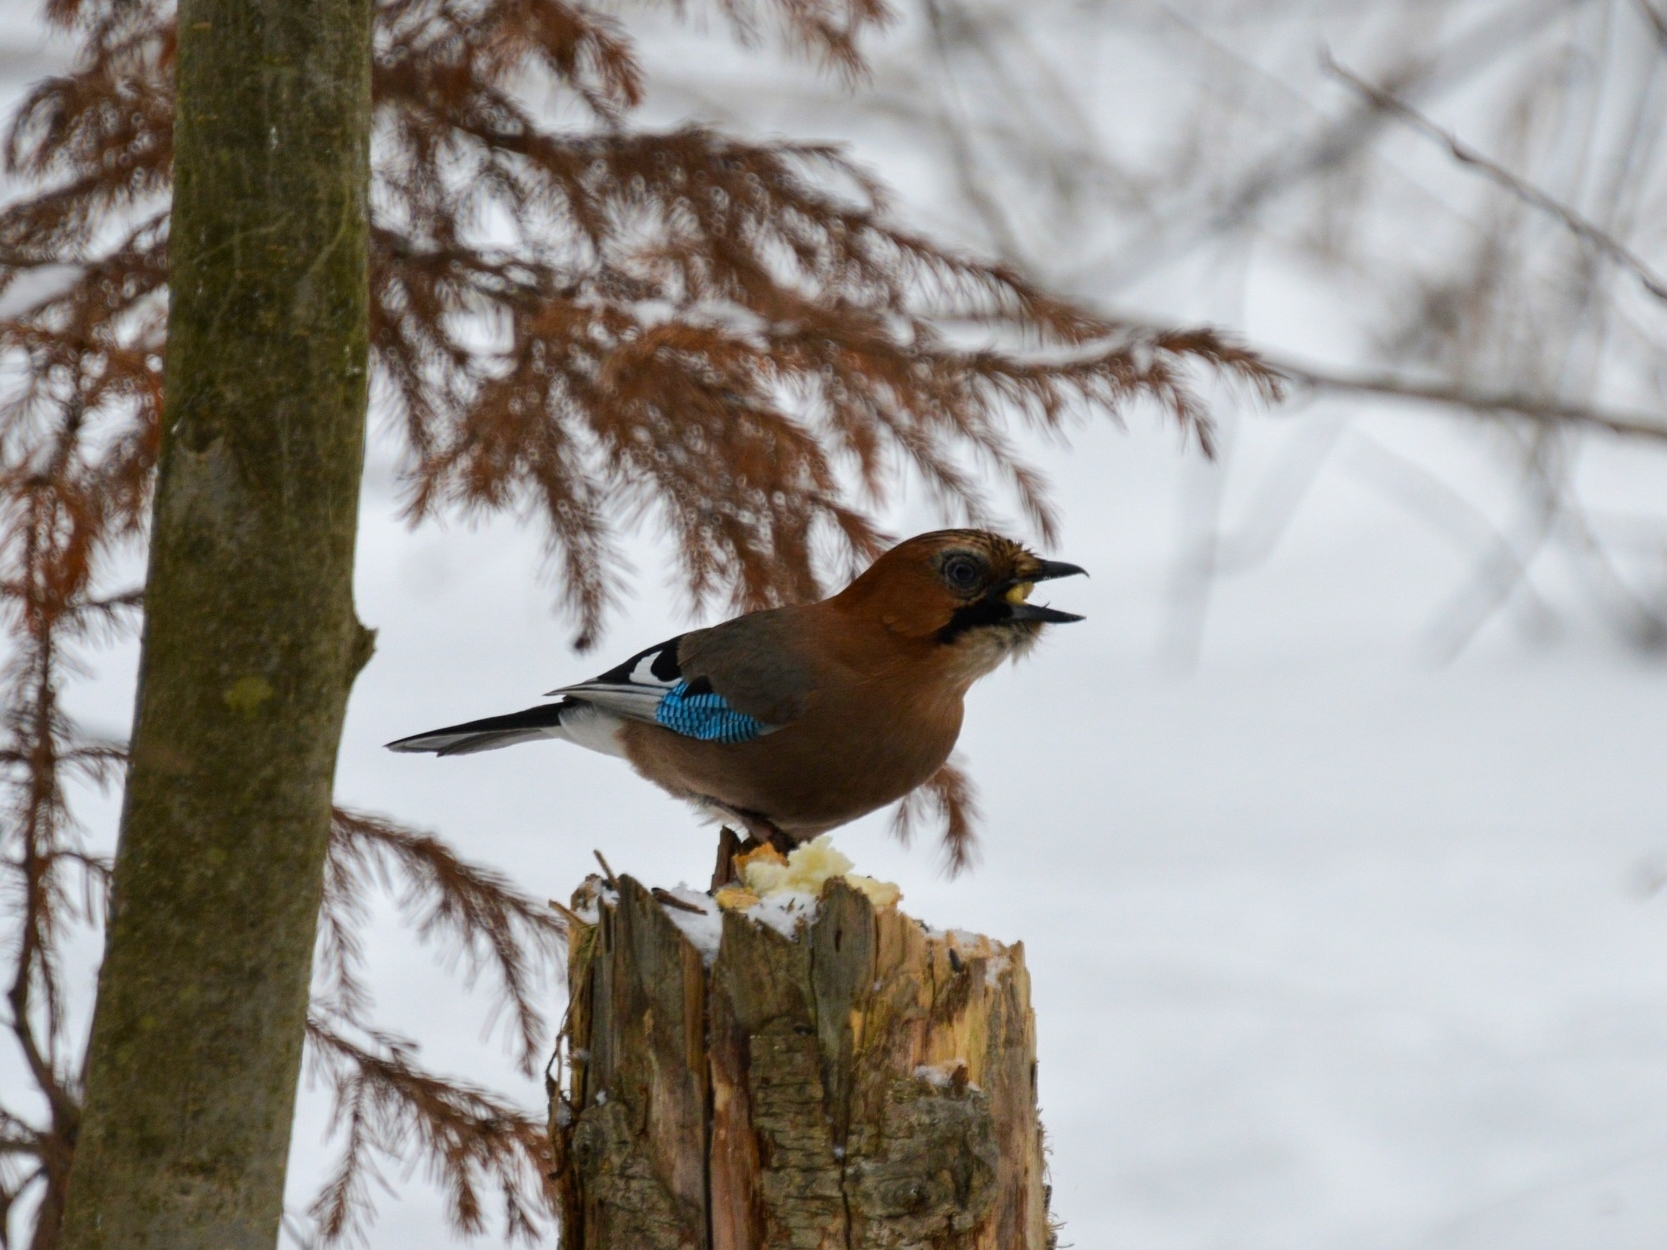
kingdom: Animalia
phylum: Chordata
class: Aves
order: Passeriformes
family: Corvidae
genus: Garrulus
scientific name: Garrulus glandarius
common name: Eurasian jay
